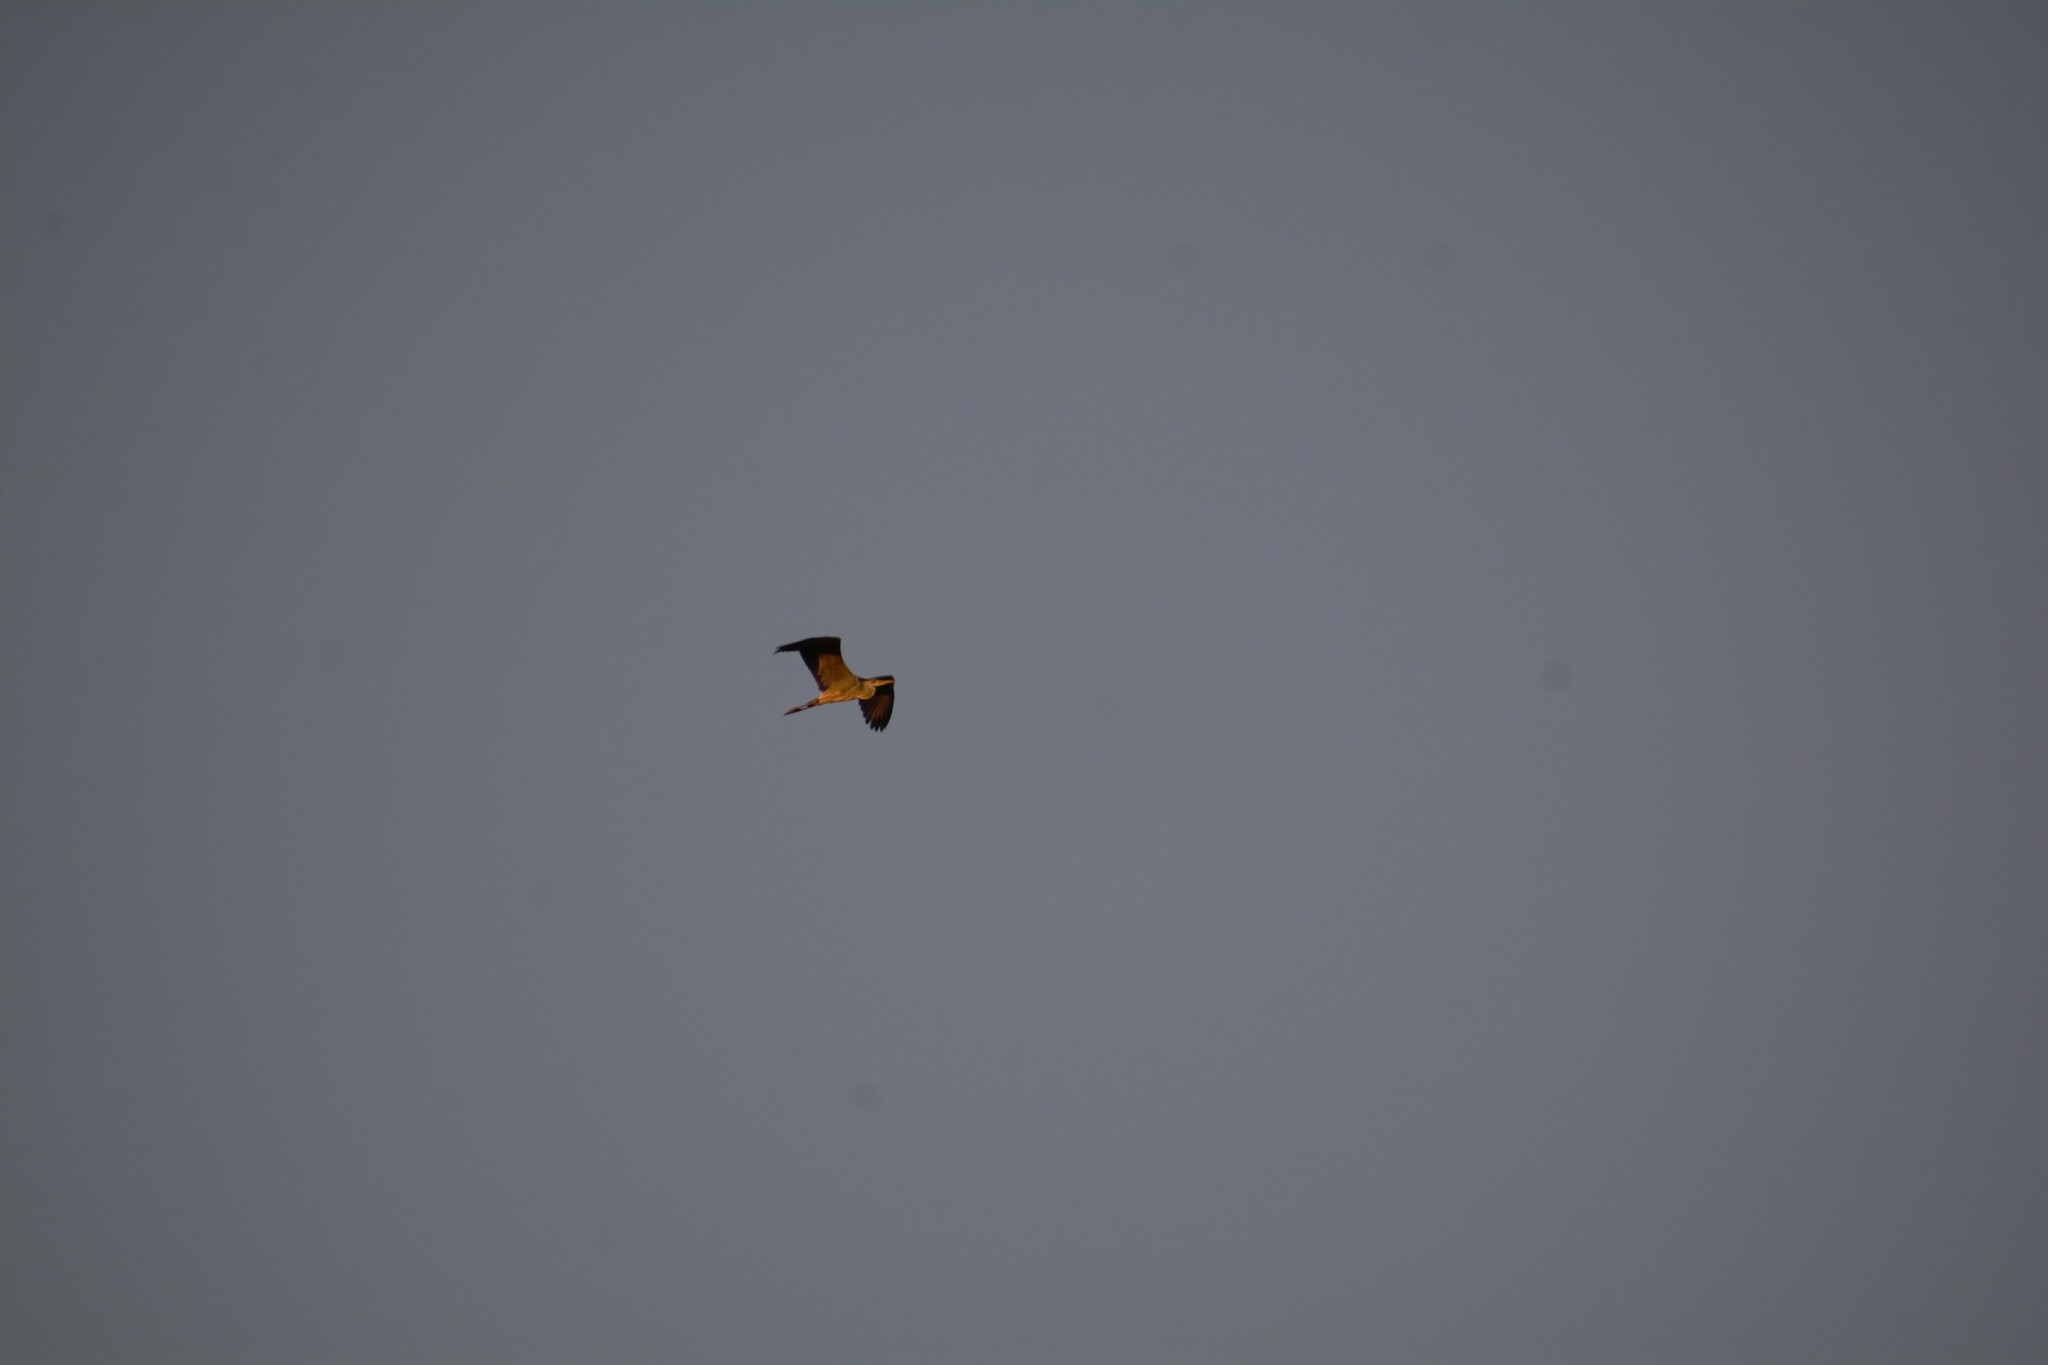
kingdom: Animalia
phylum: Chordata
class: Aves
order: Pelecaniformes
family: Ardeidae
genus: Ardea
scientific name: Ardea cinerea
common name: Grey heron
